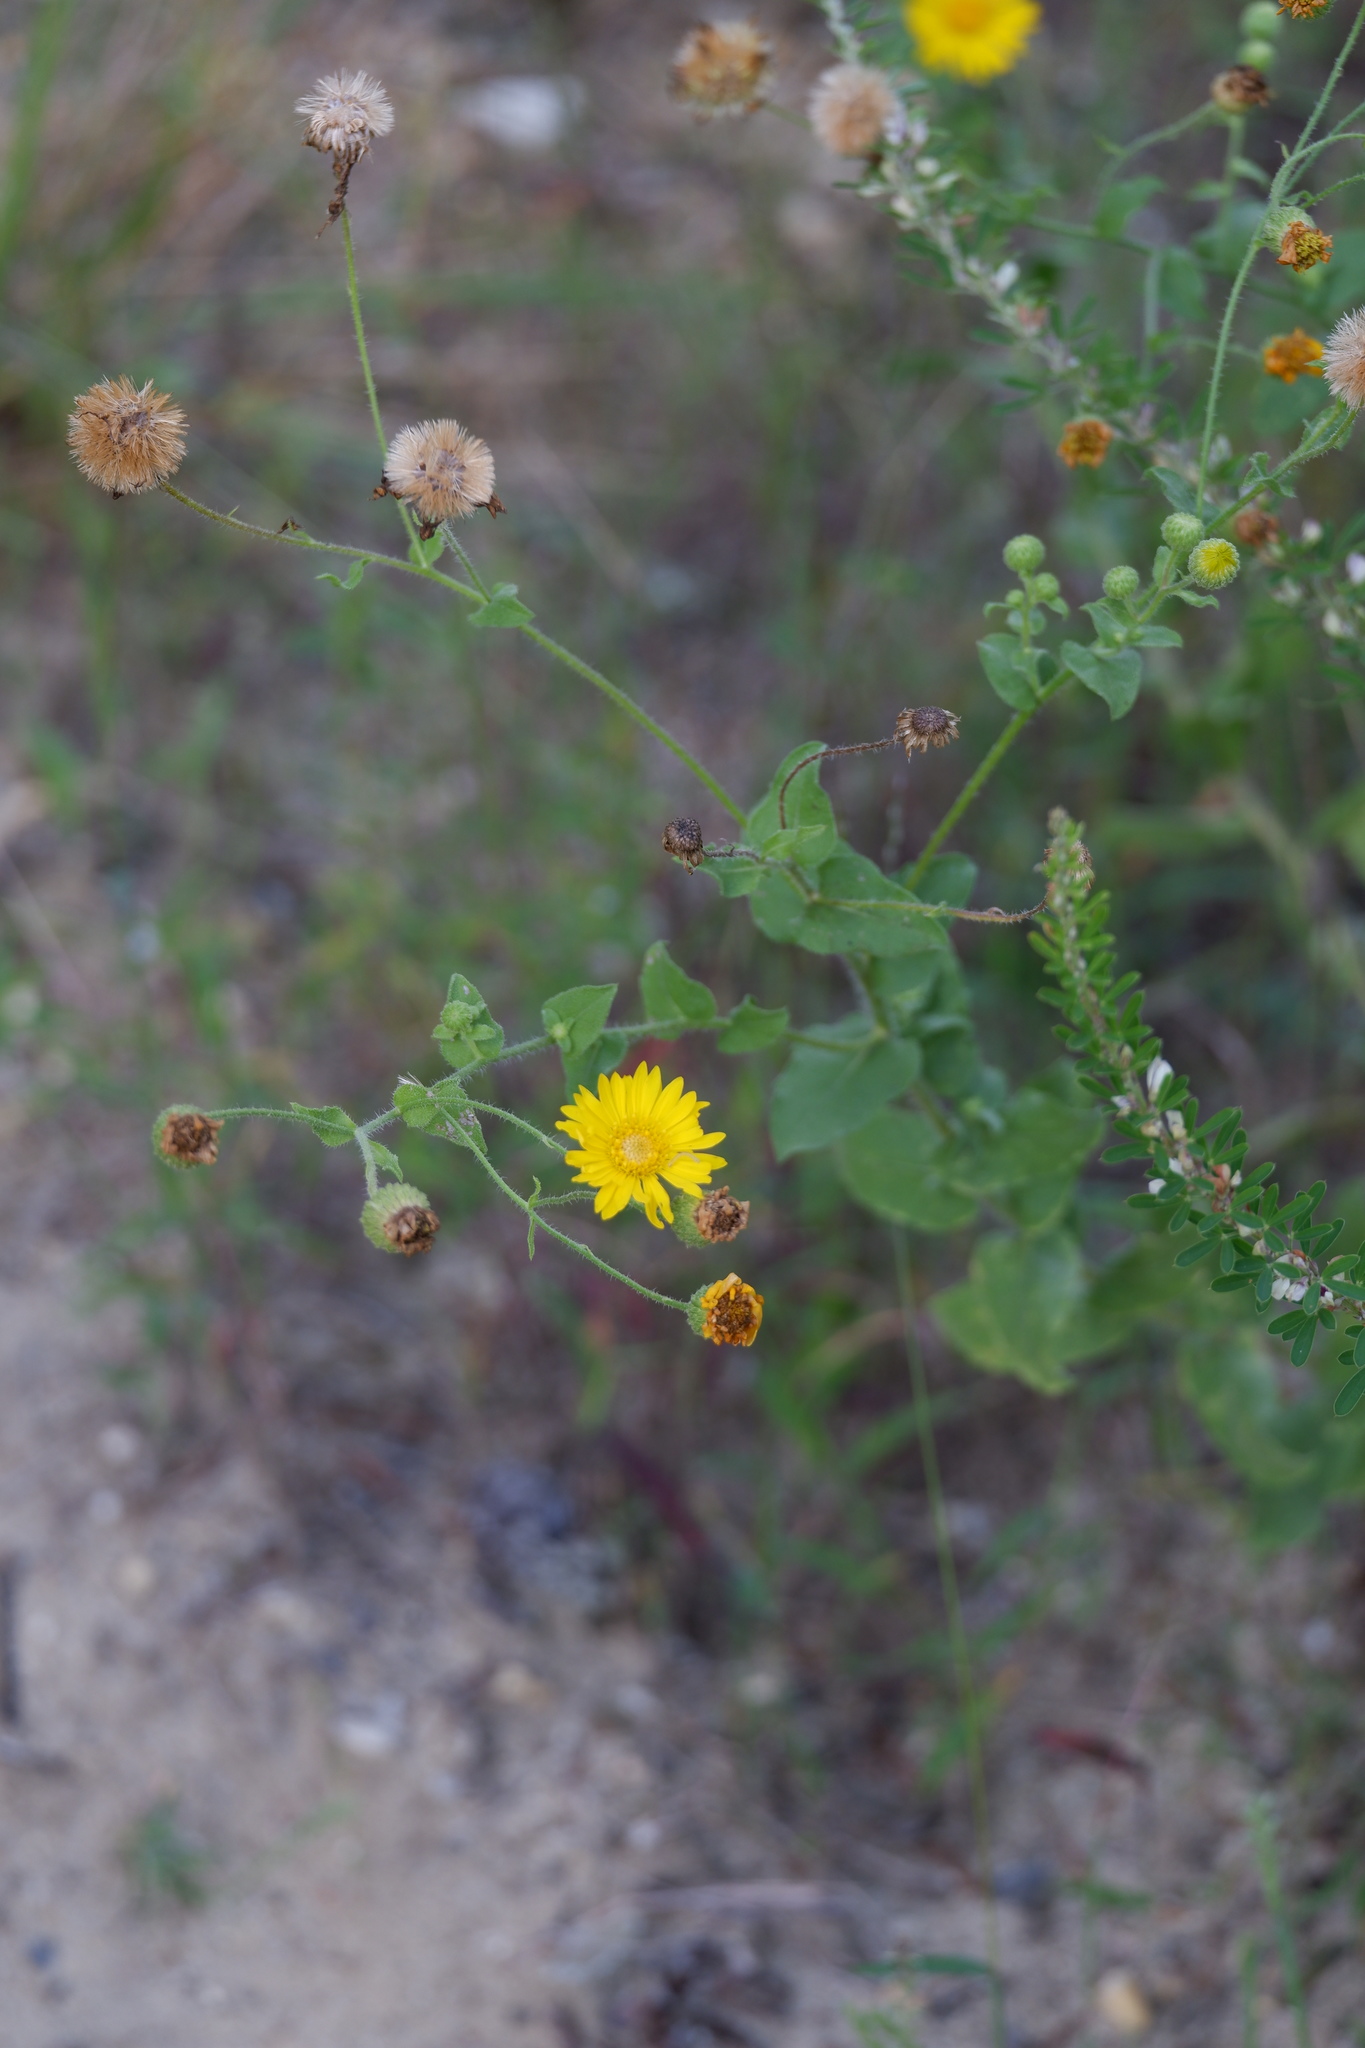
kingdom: Plantae
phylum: Tracheophyta
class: Magnoliopsida
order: Asterales
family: Asteraceae
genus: Heterotheca
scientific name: Heterotheca subaxillaris
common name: Camphorweed
